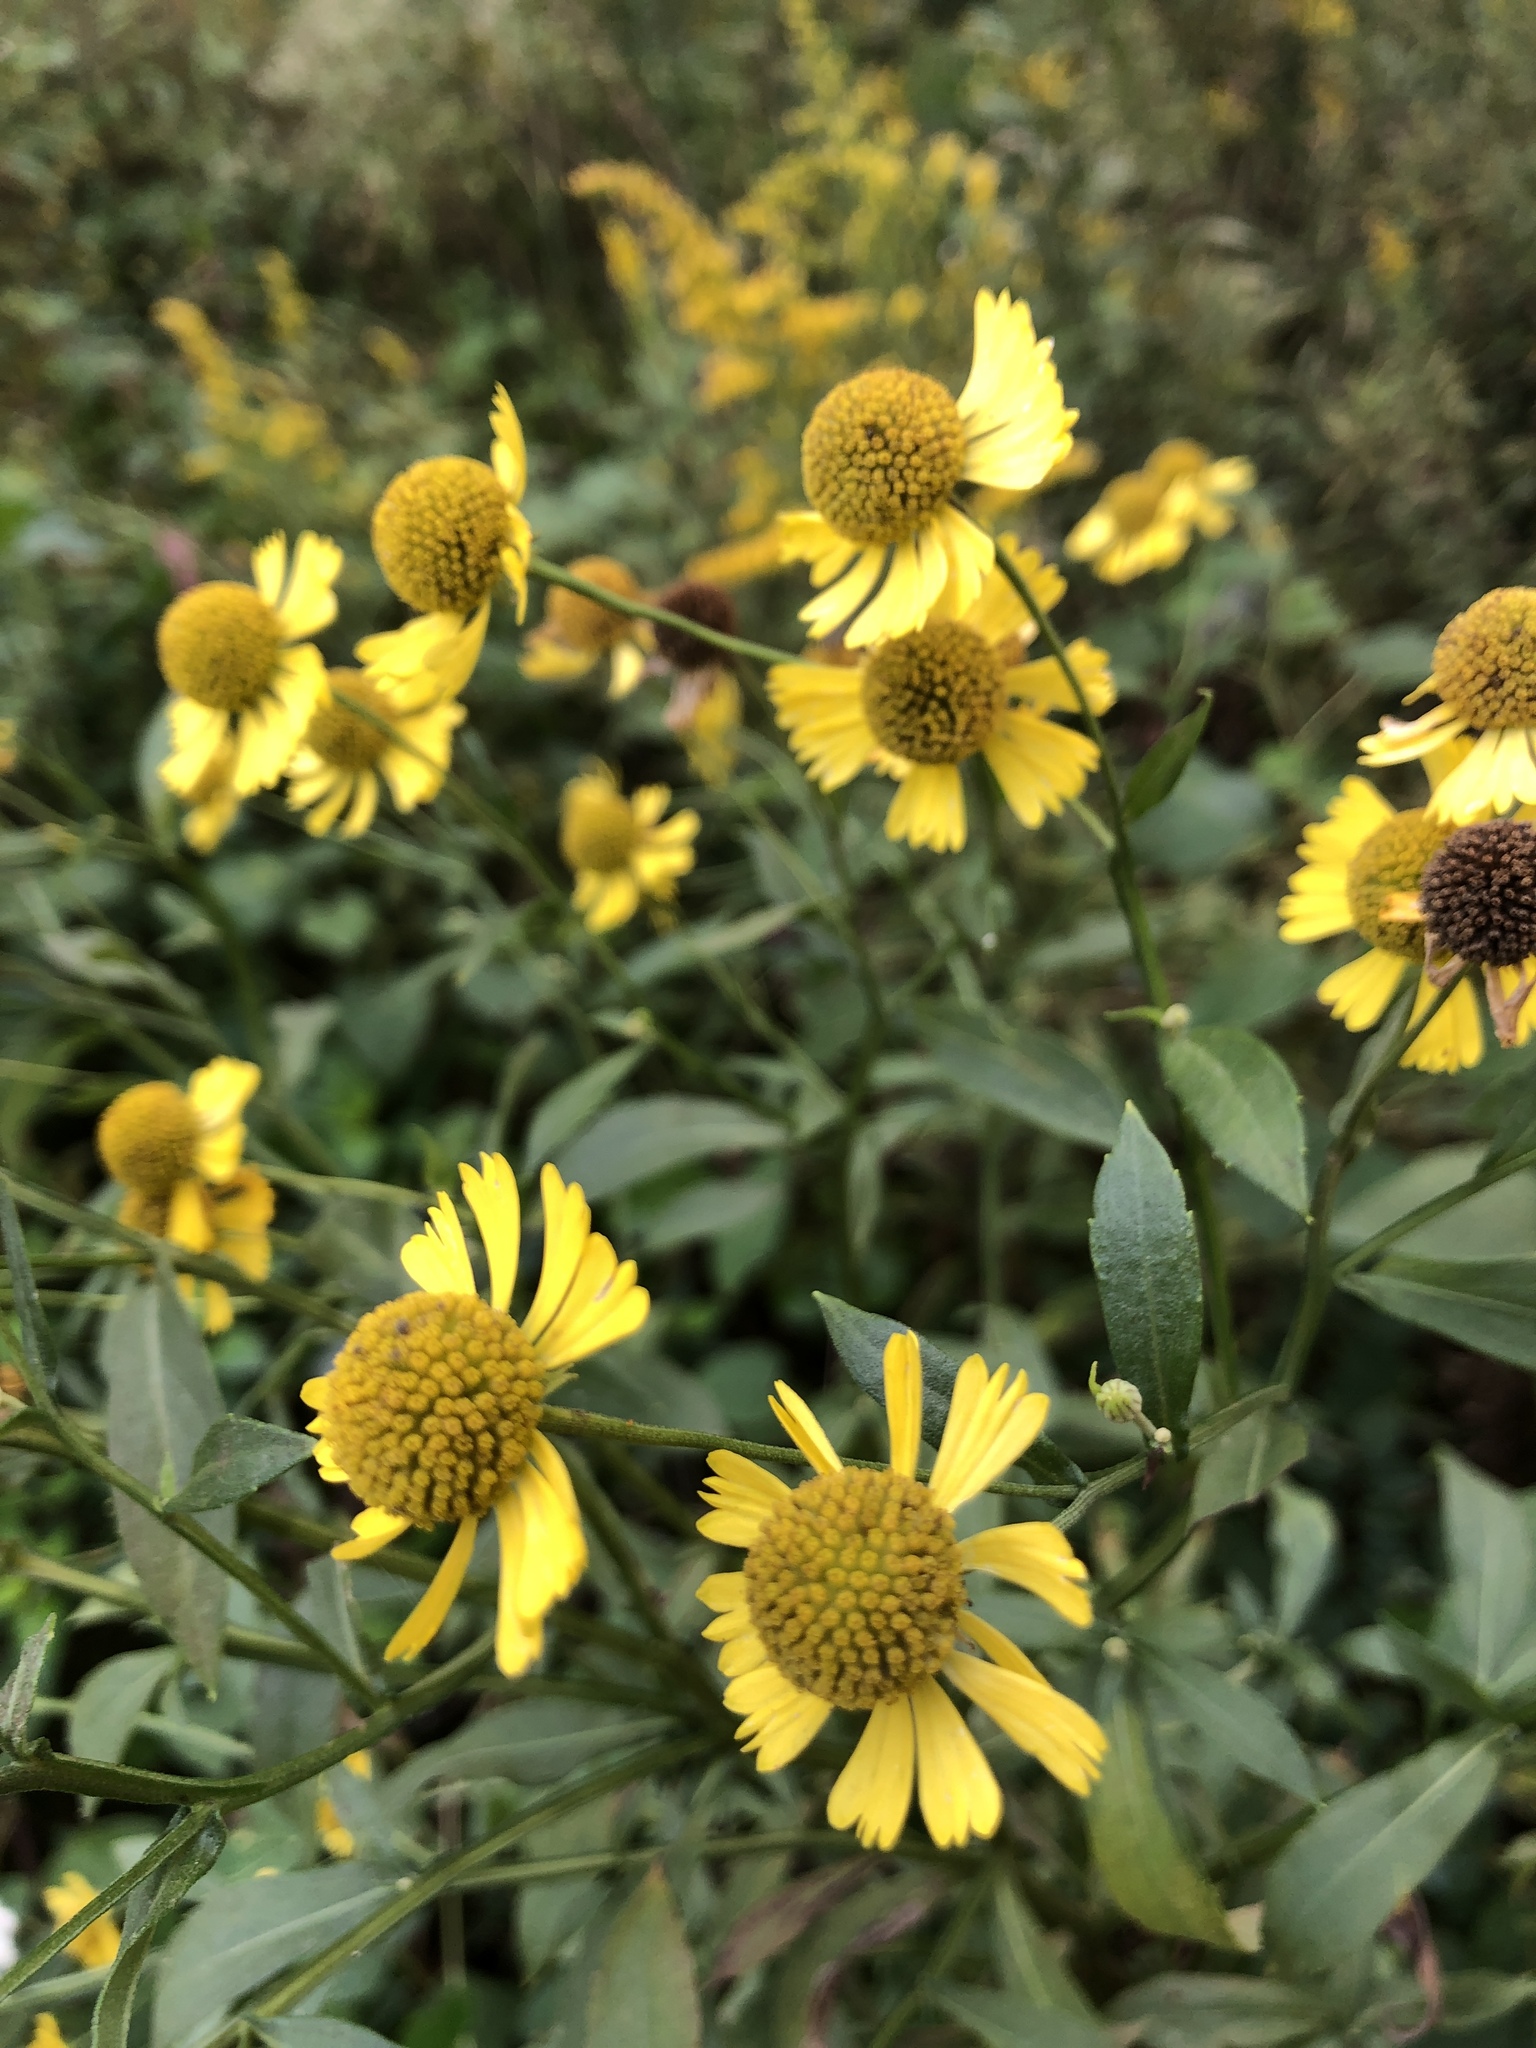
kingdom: Plantae
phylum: Tracheophyta
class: Magnoliopsida
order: Asterales
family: Asteraceae
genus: Helenium
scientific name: Helenium autumnale
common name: Sneezeweed
